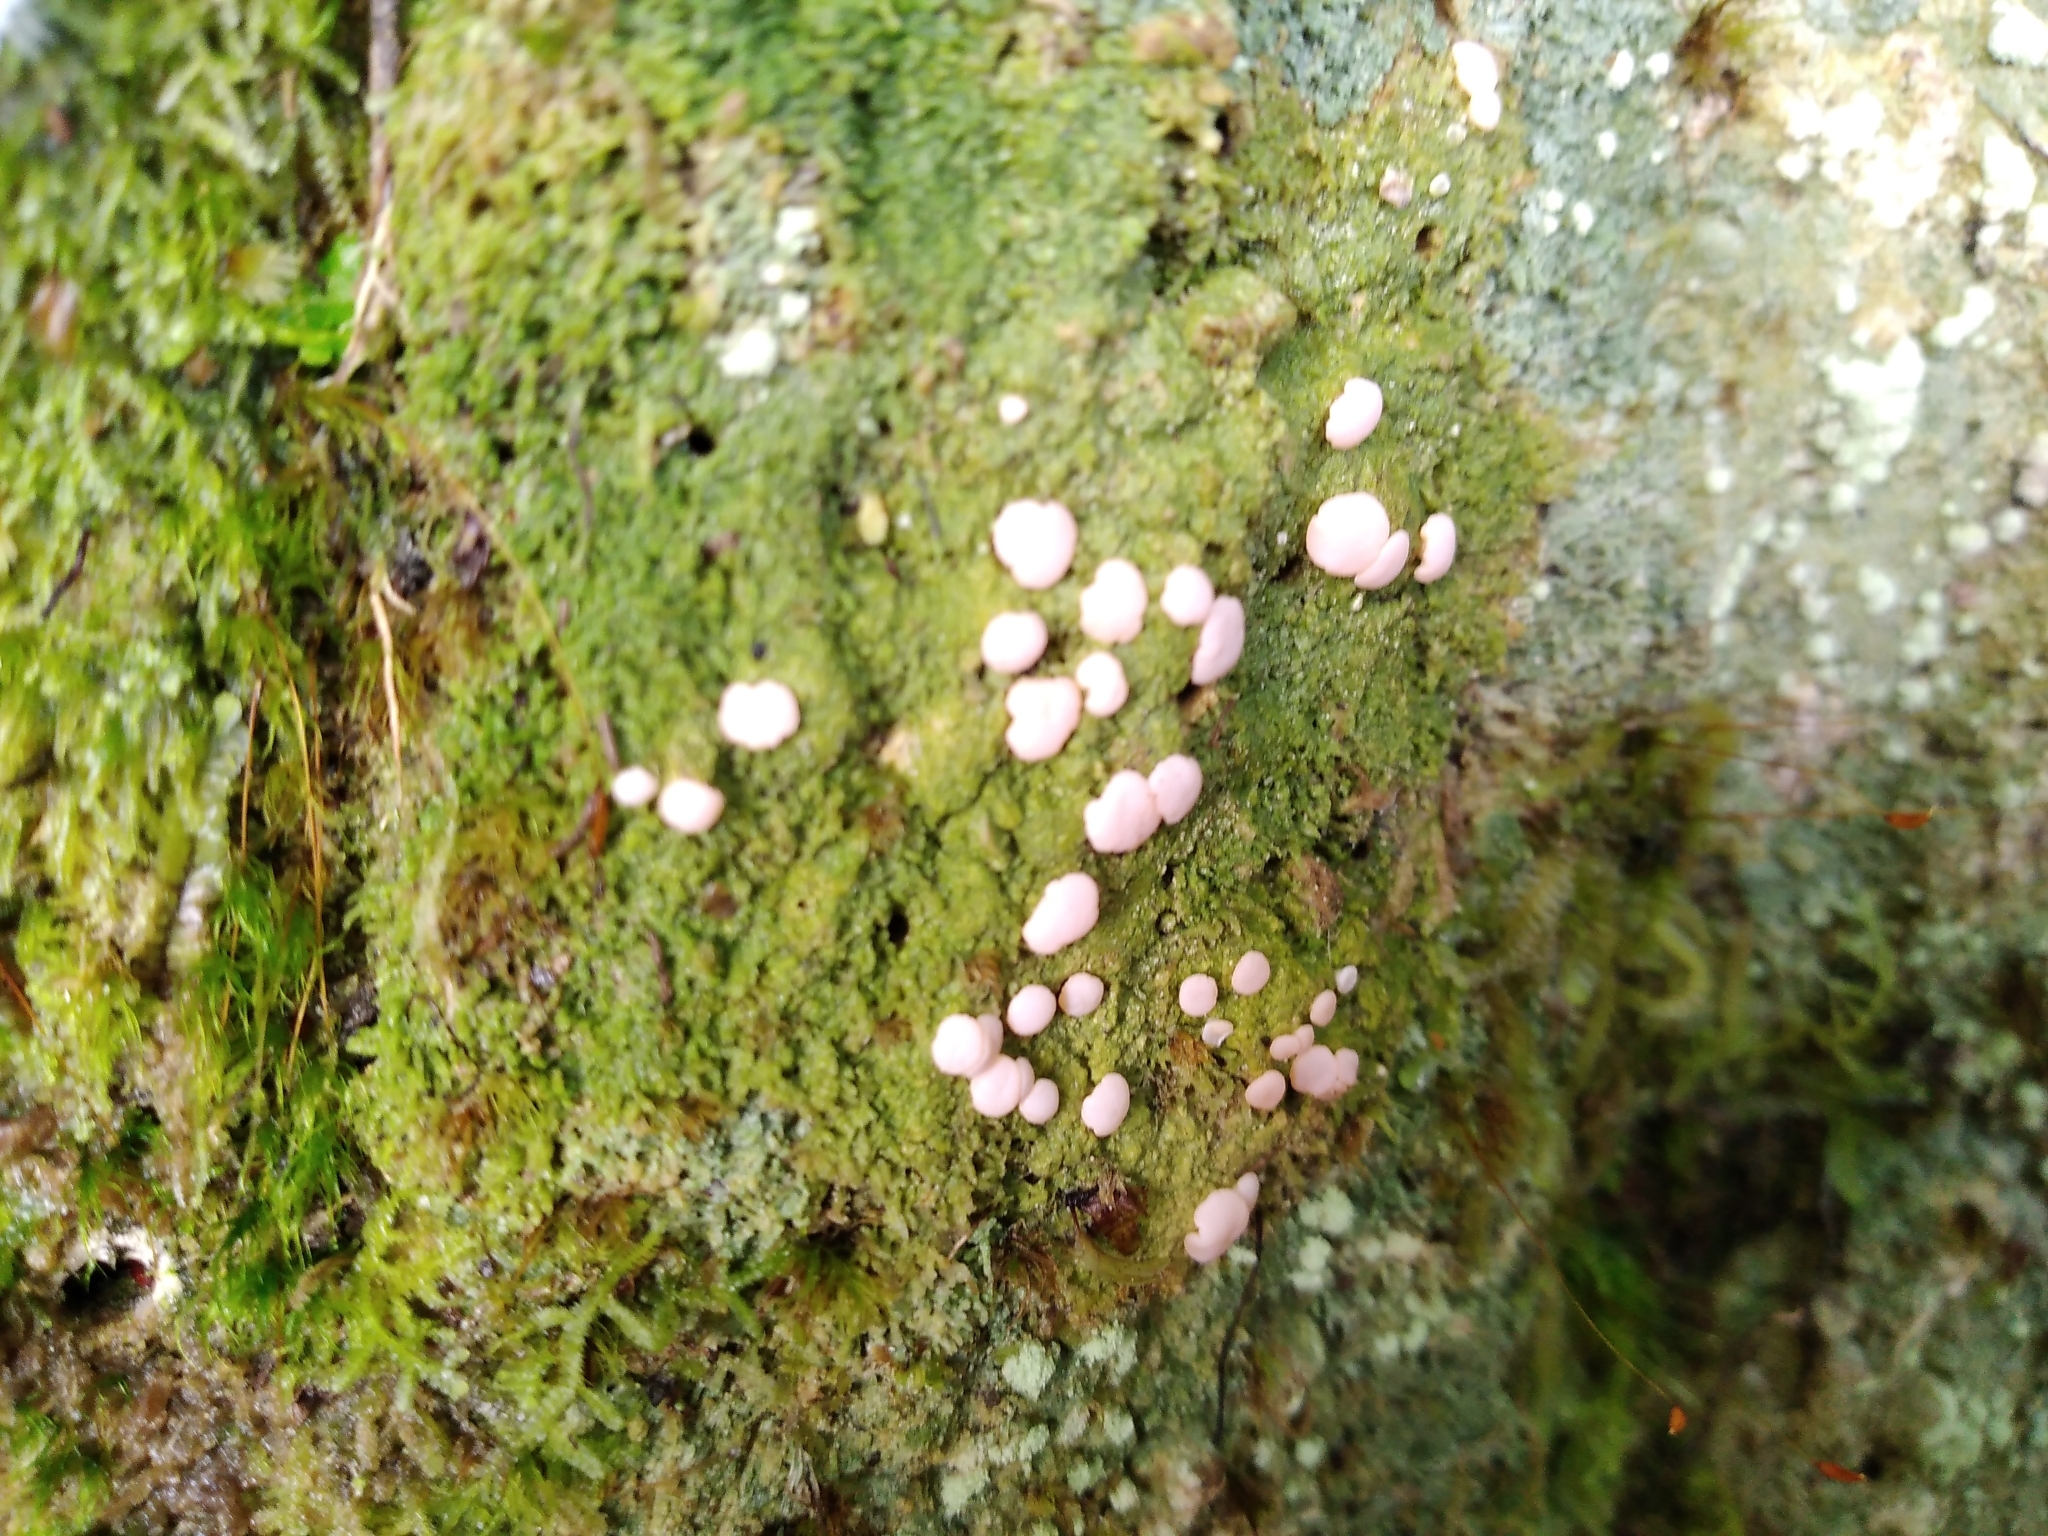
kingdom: Fungi
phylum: Ascomycota
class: Lecanoromycetes
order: Pertusariales
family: Icmadophilaceae
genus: Dibaeis
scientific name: Dibaeis absoluta
